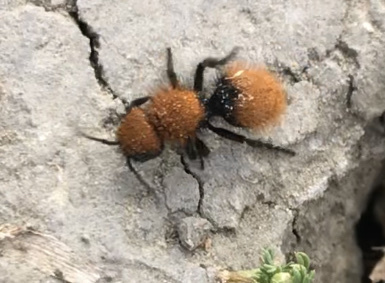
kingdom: Animalia
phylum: Arthropoda
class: Insecta
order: Hymenoptera
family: Mutillidae
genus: Dasymutilla
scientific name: Dasymutilla
